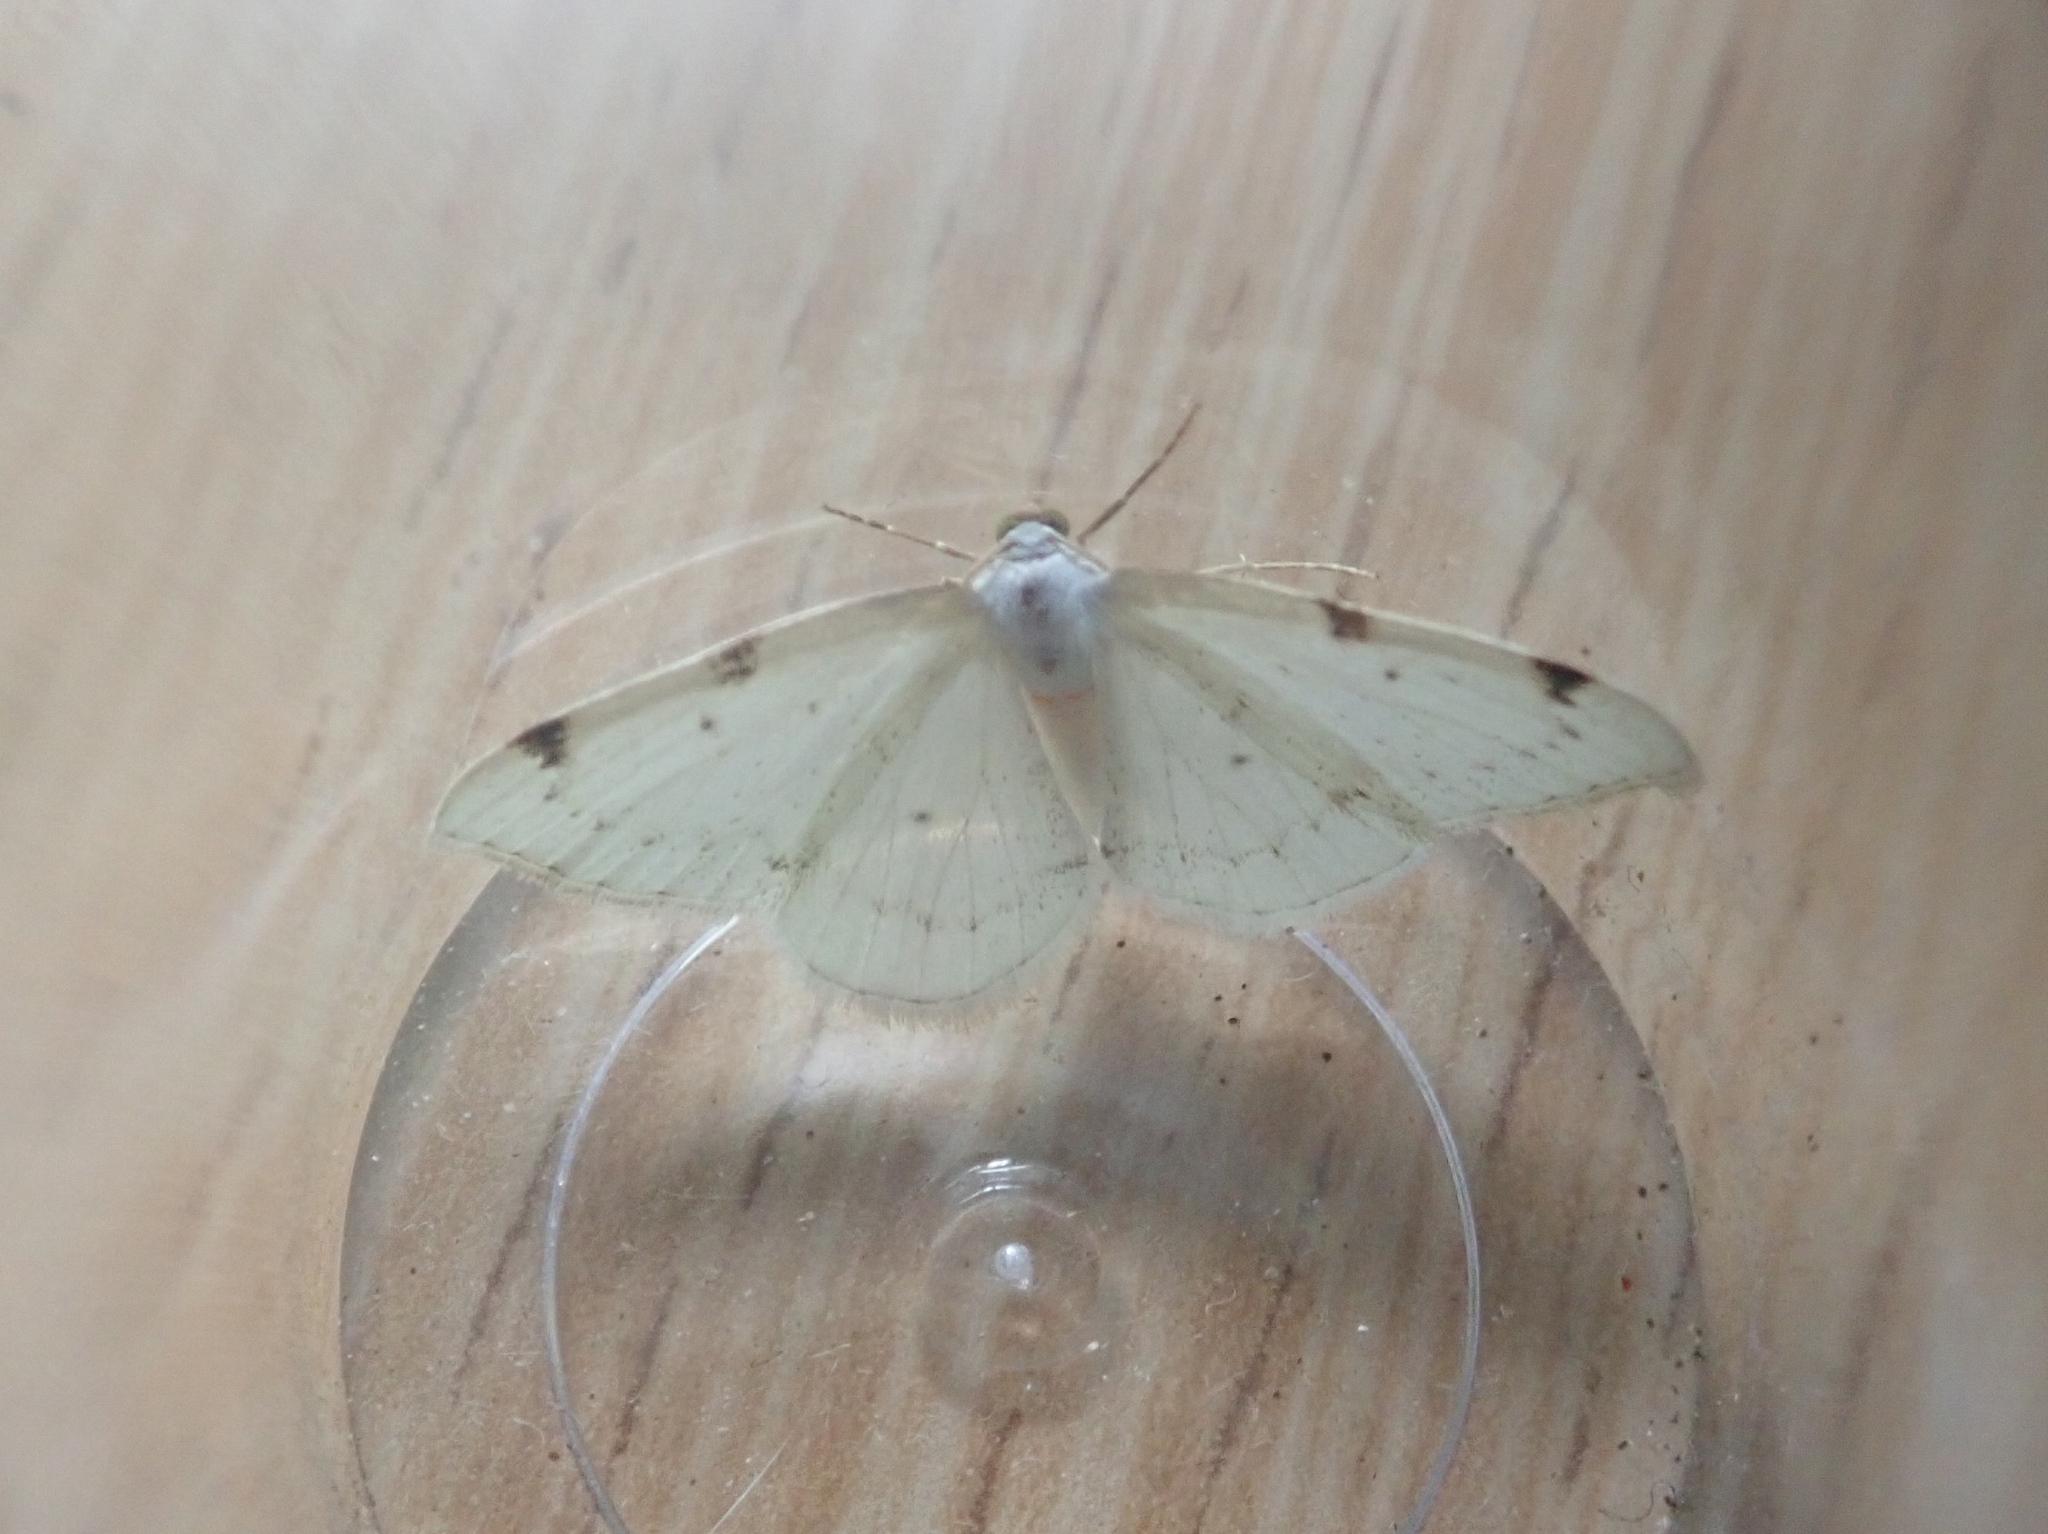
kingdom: Animalia
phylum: Arthropoda
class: Insecta
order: Lepidoptera
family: Geometridae
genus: Lomographa
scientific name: Lomographa bimaculata
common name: White-pinion spotted
